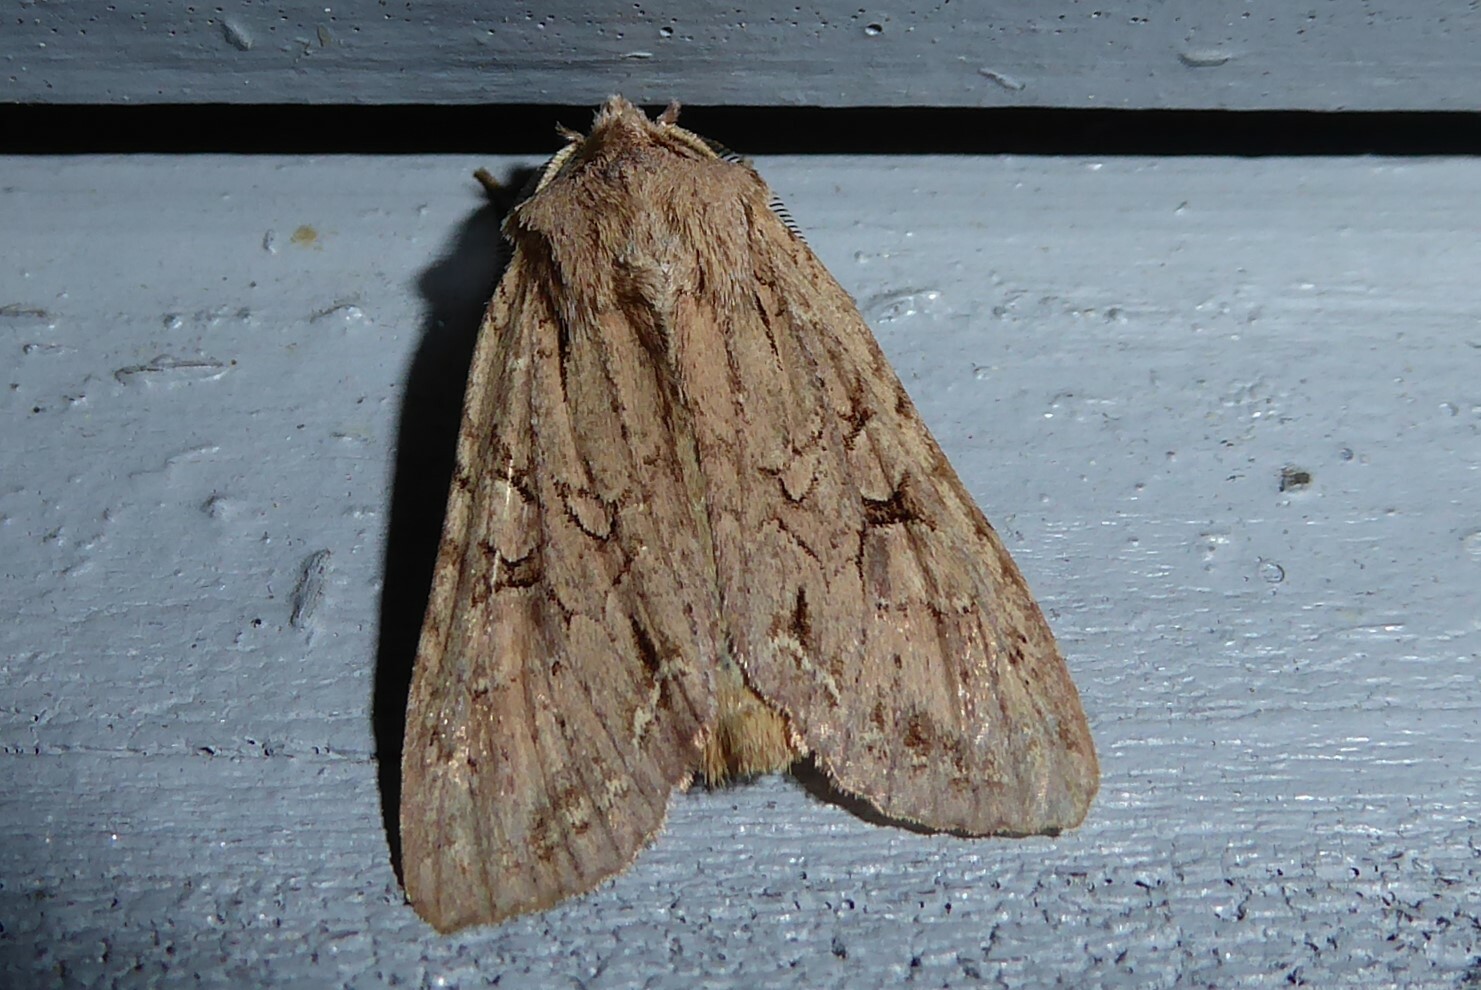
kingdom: Animalia
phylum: Arthropoda
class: Insecta
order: Lepidoptera
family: Noctuidae
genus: Ichneutica
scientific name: Ichneutica
